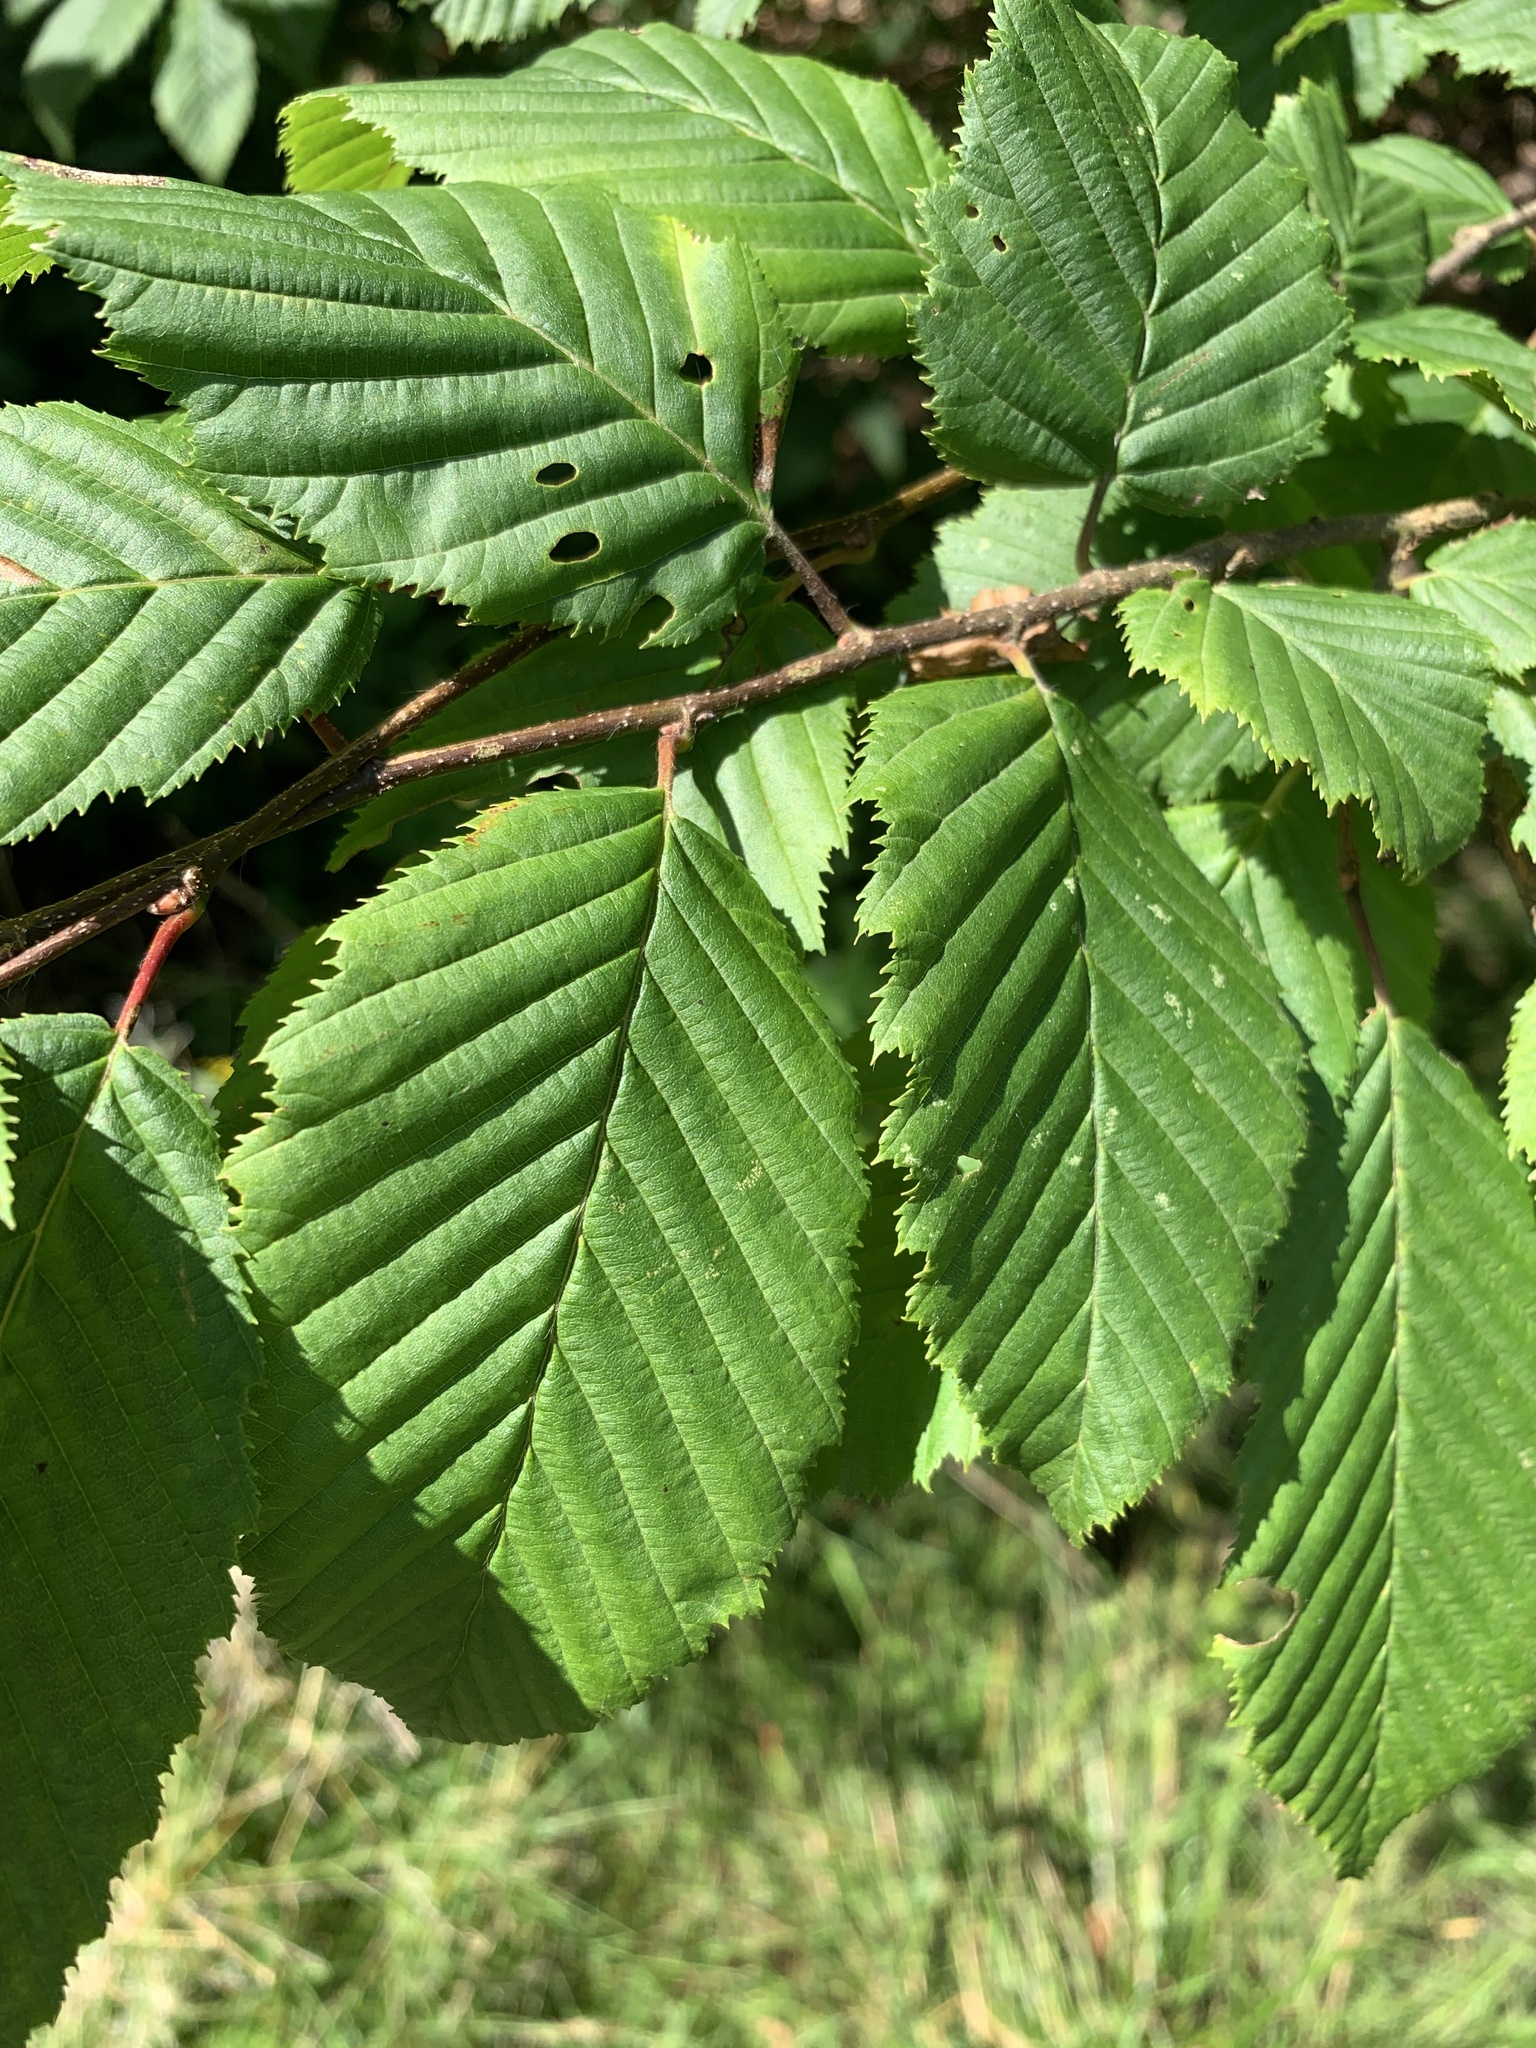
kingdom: Plantae
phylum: Tracheophyta
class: Magnoliopsida
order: Fagales
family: Betulaceae
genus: Carpinus
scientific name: Carpinus betulus
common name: Hornbeam
